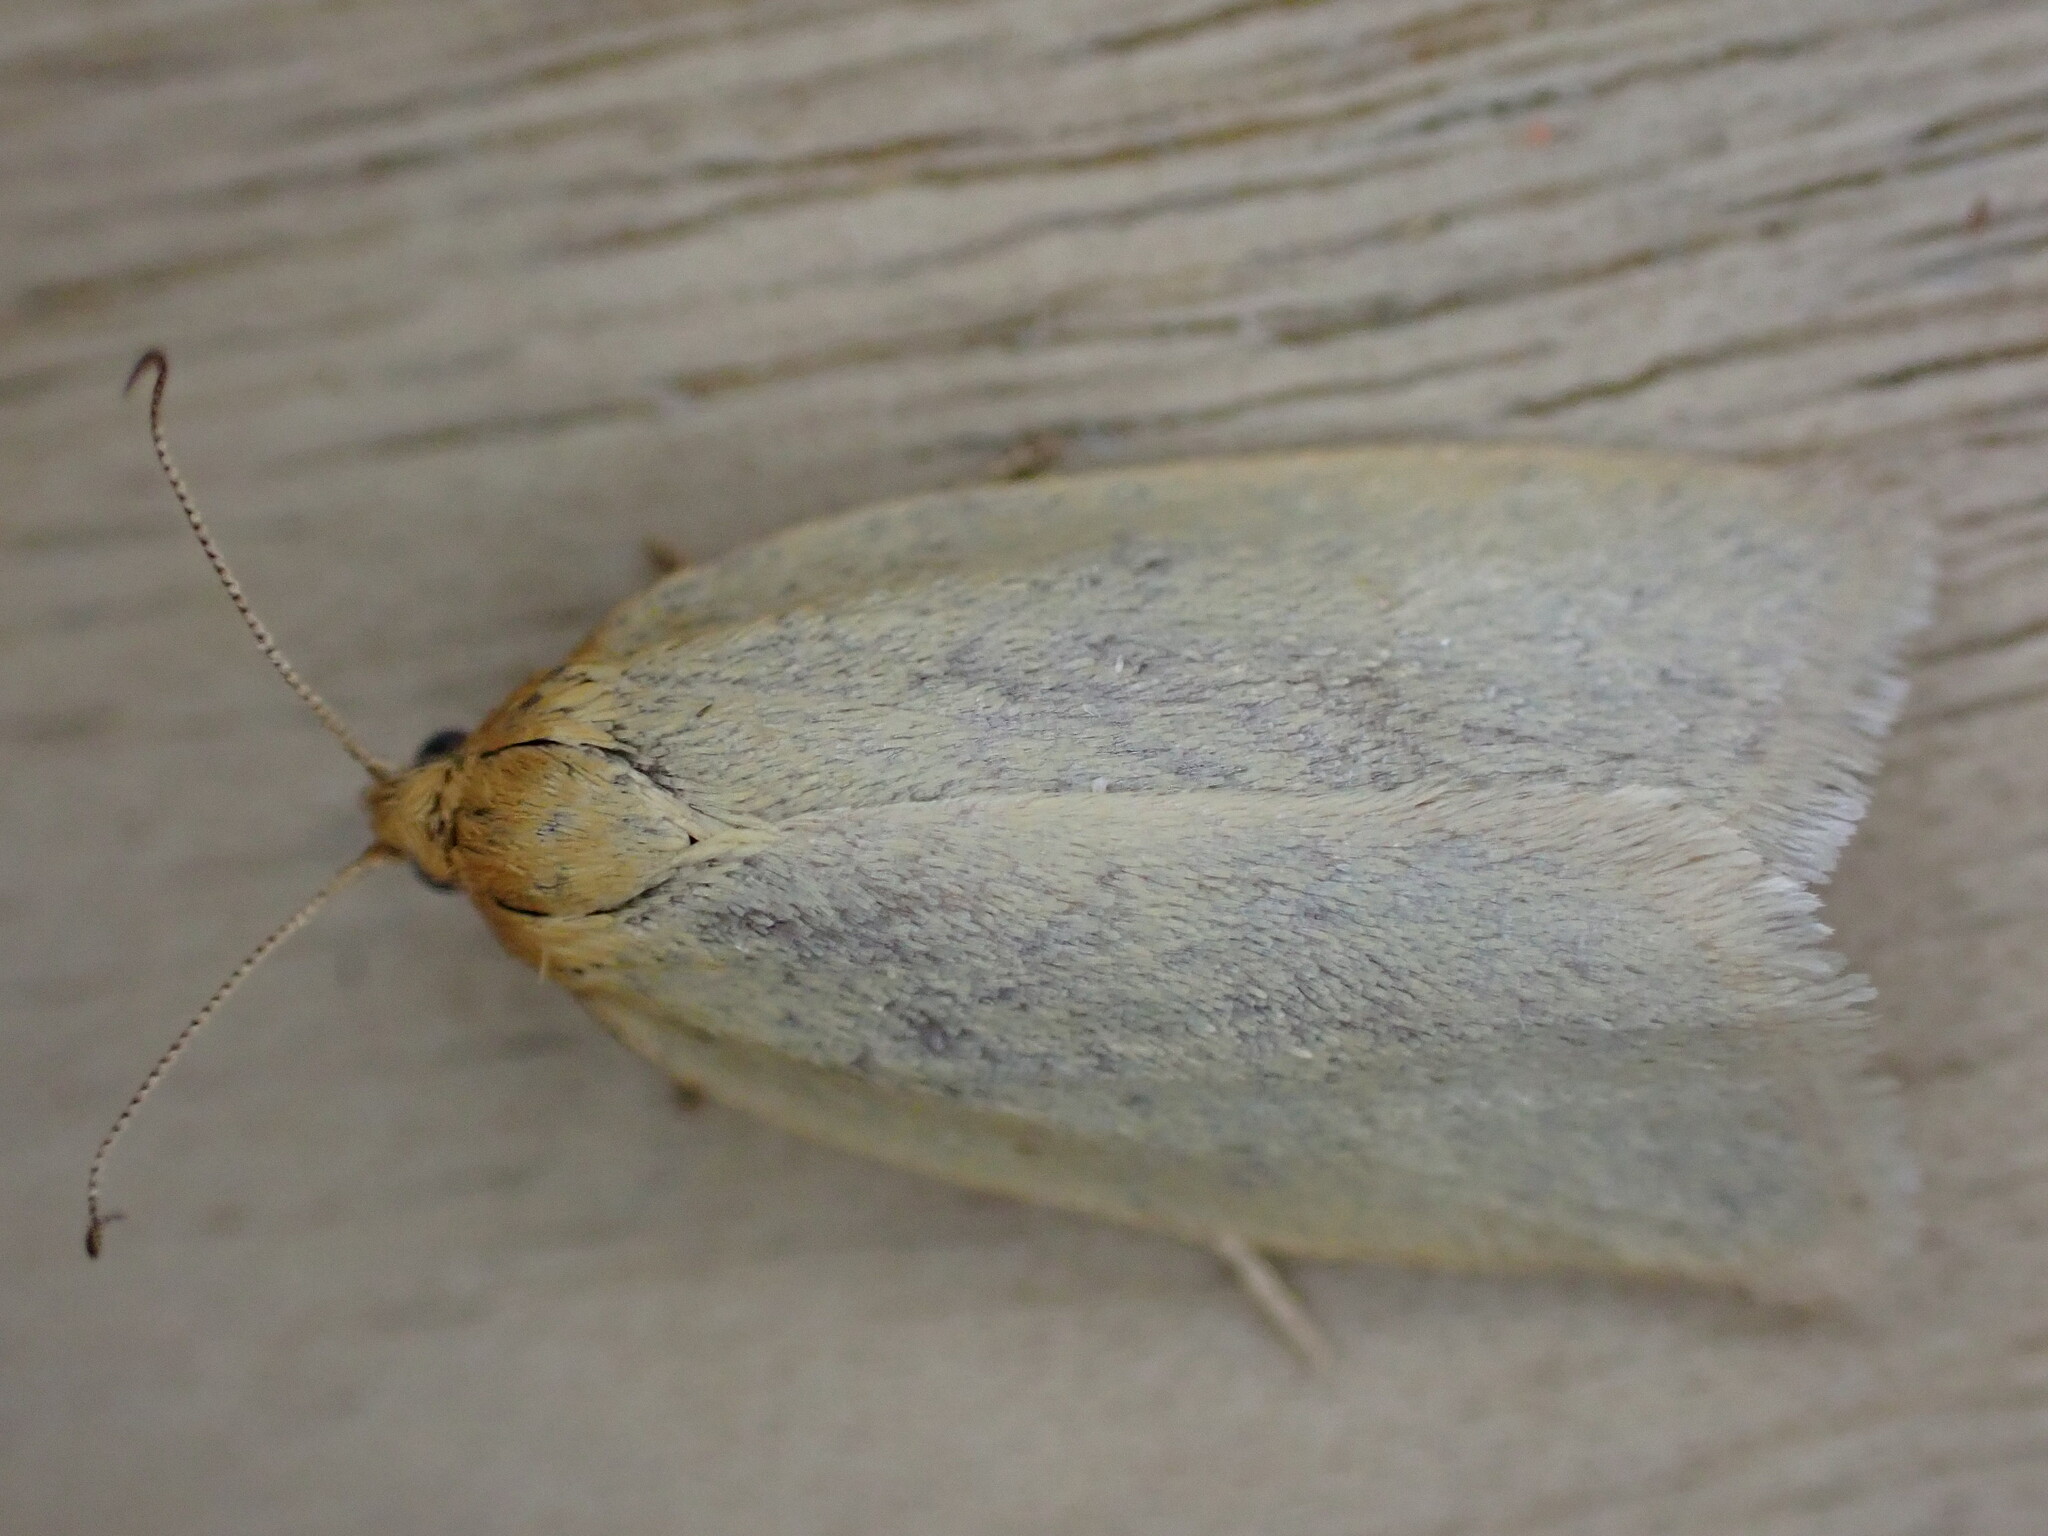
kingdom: Animalia
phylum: Arthropoda
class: Insecta
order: Lepidoptera
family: Tortricidae
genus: Aphelia
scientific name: Aphelia Zelotherses paleana
